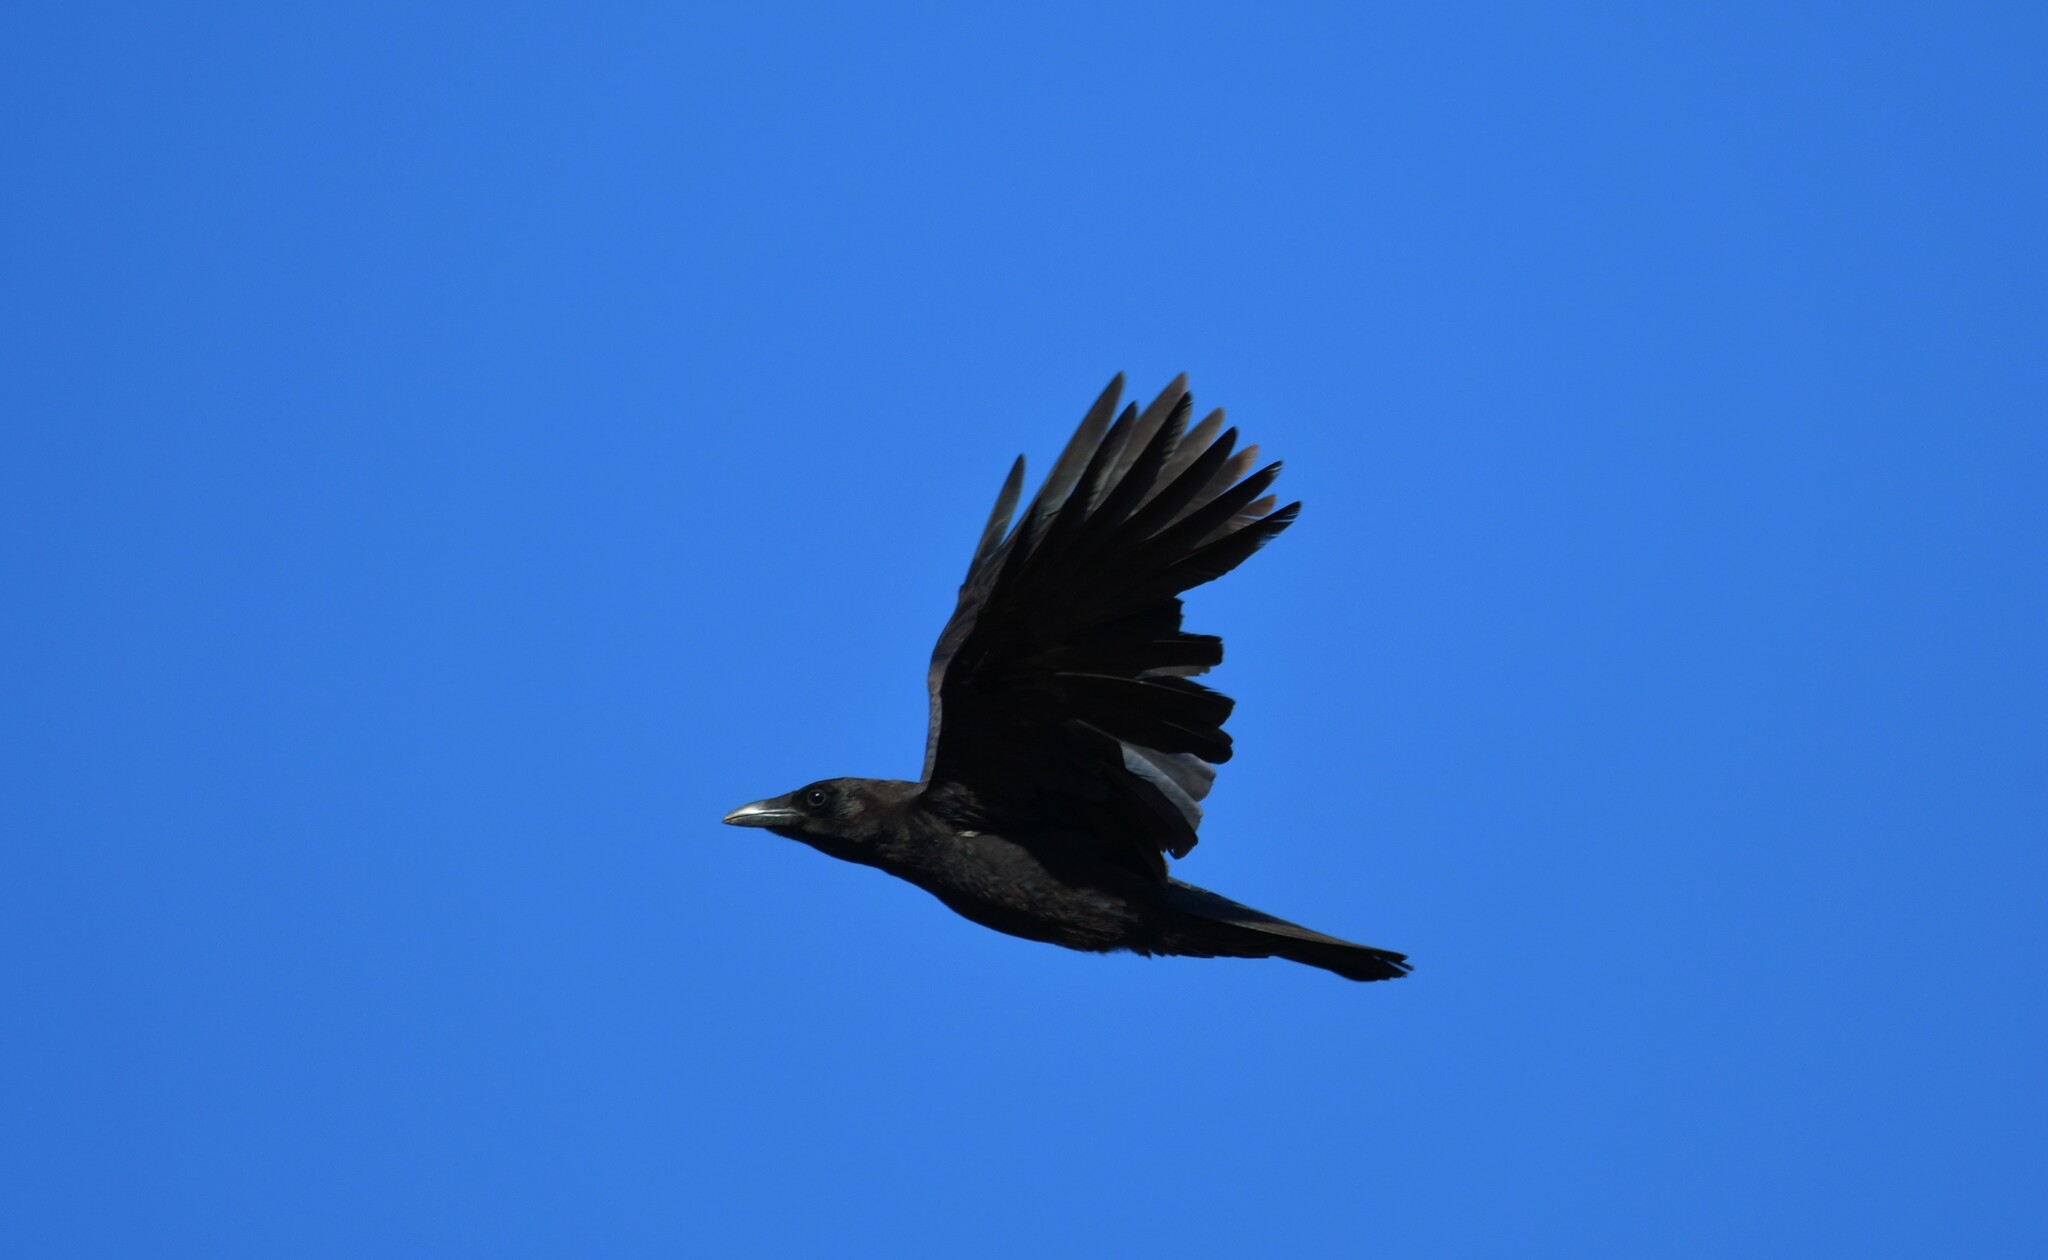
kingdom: Animalia
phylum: Chordata
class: Aves
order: Passeriformes
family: Corvidae
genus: Corvus
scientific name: Corvus corone
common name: Carrion crow
